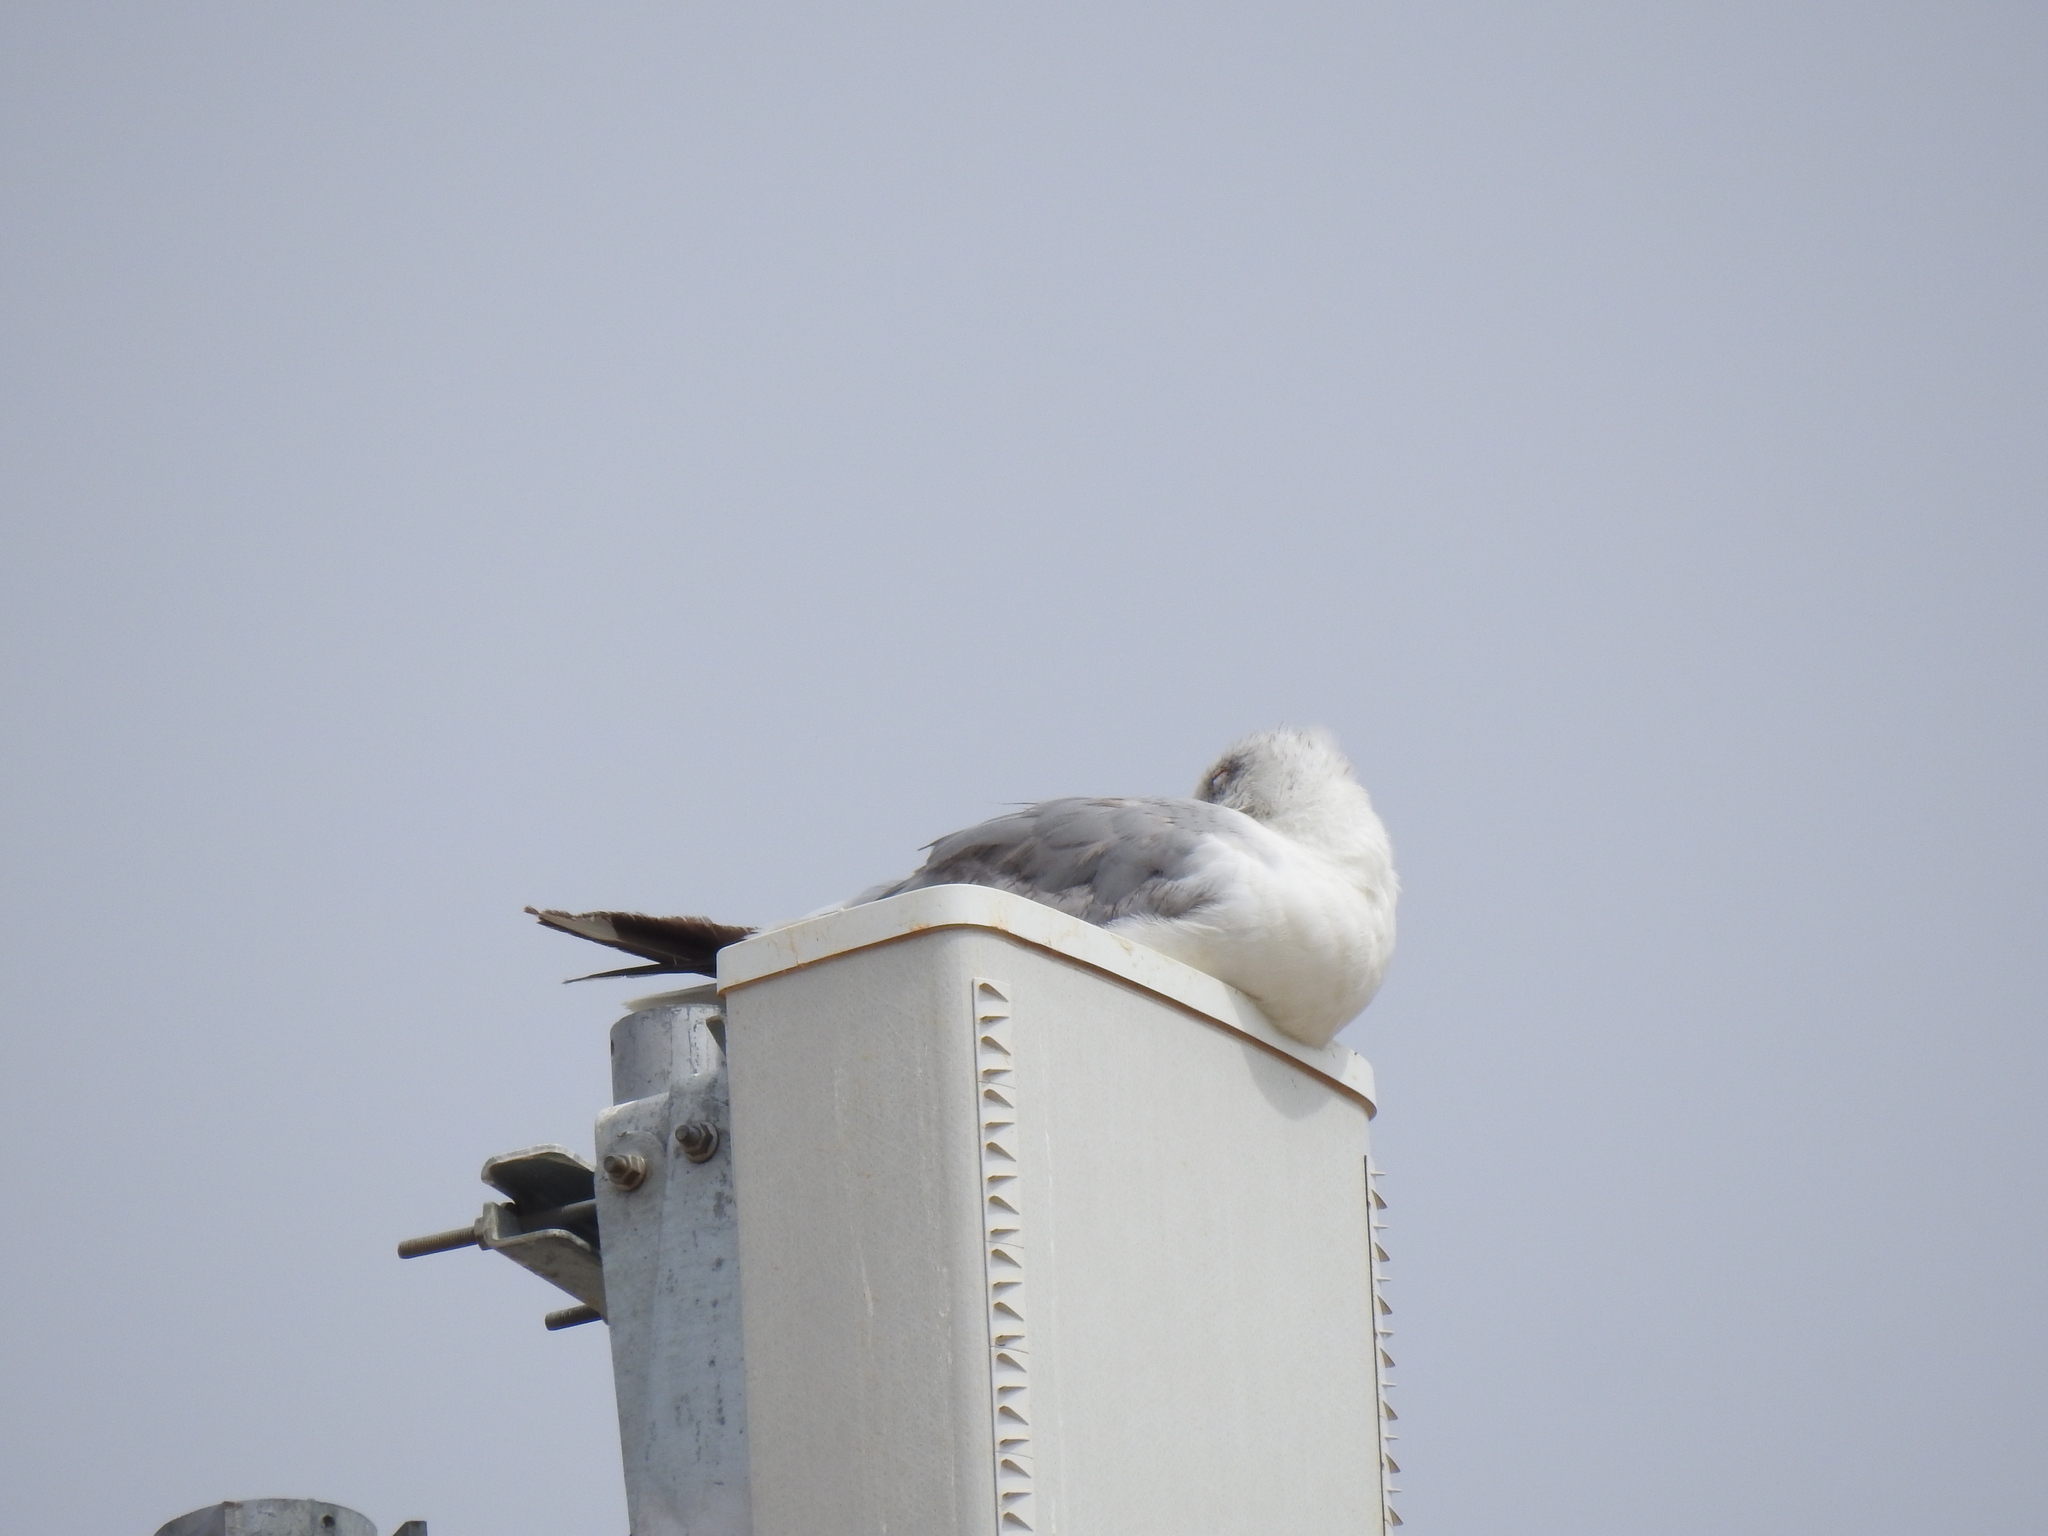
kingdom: Animalia
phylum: Chordata
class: Aves
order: Charadriiformes
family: Laridae
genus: Larus
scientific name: Larus michahellis
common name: Yellow-legged gull
